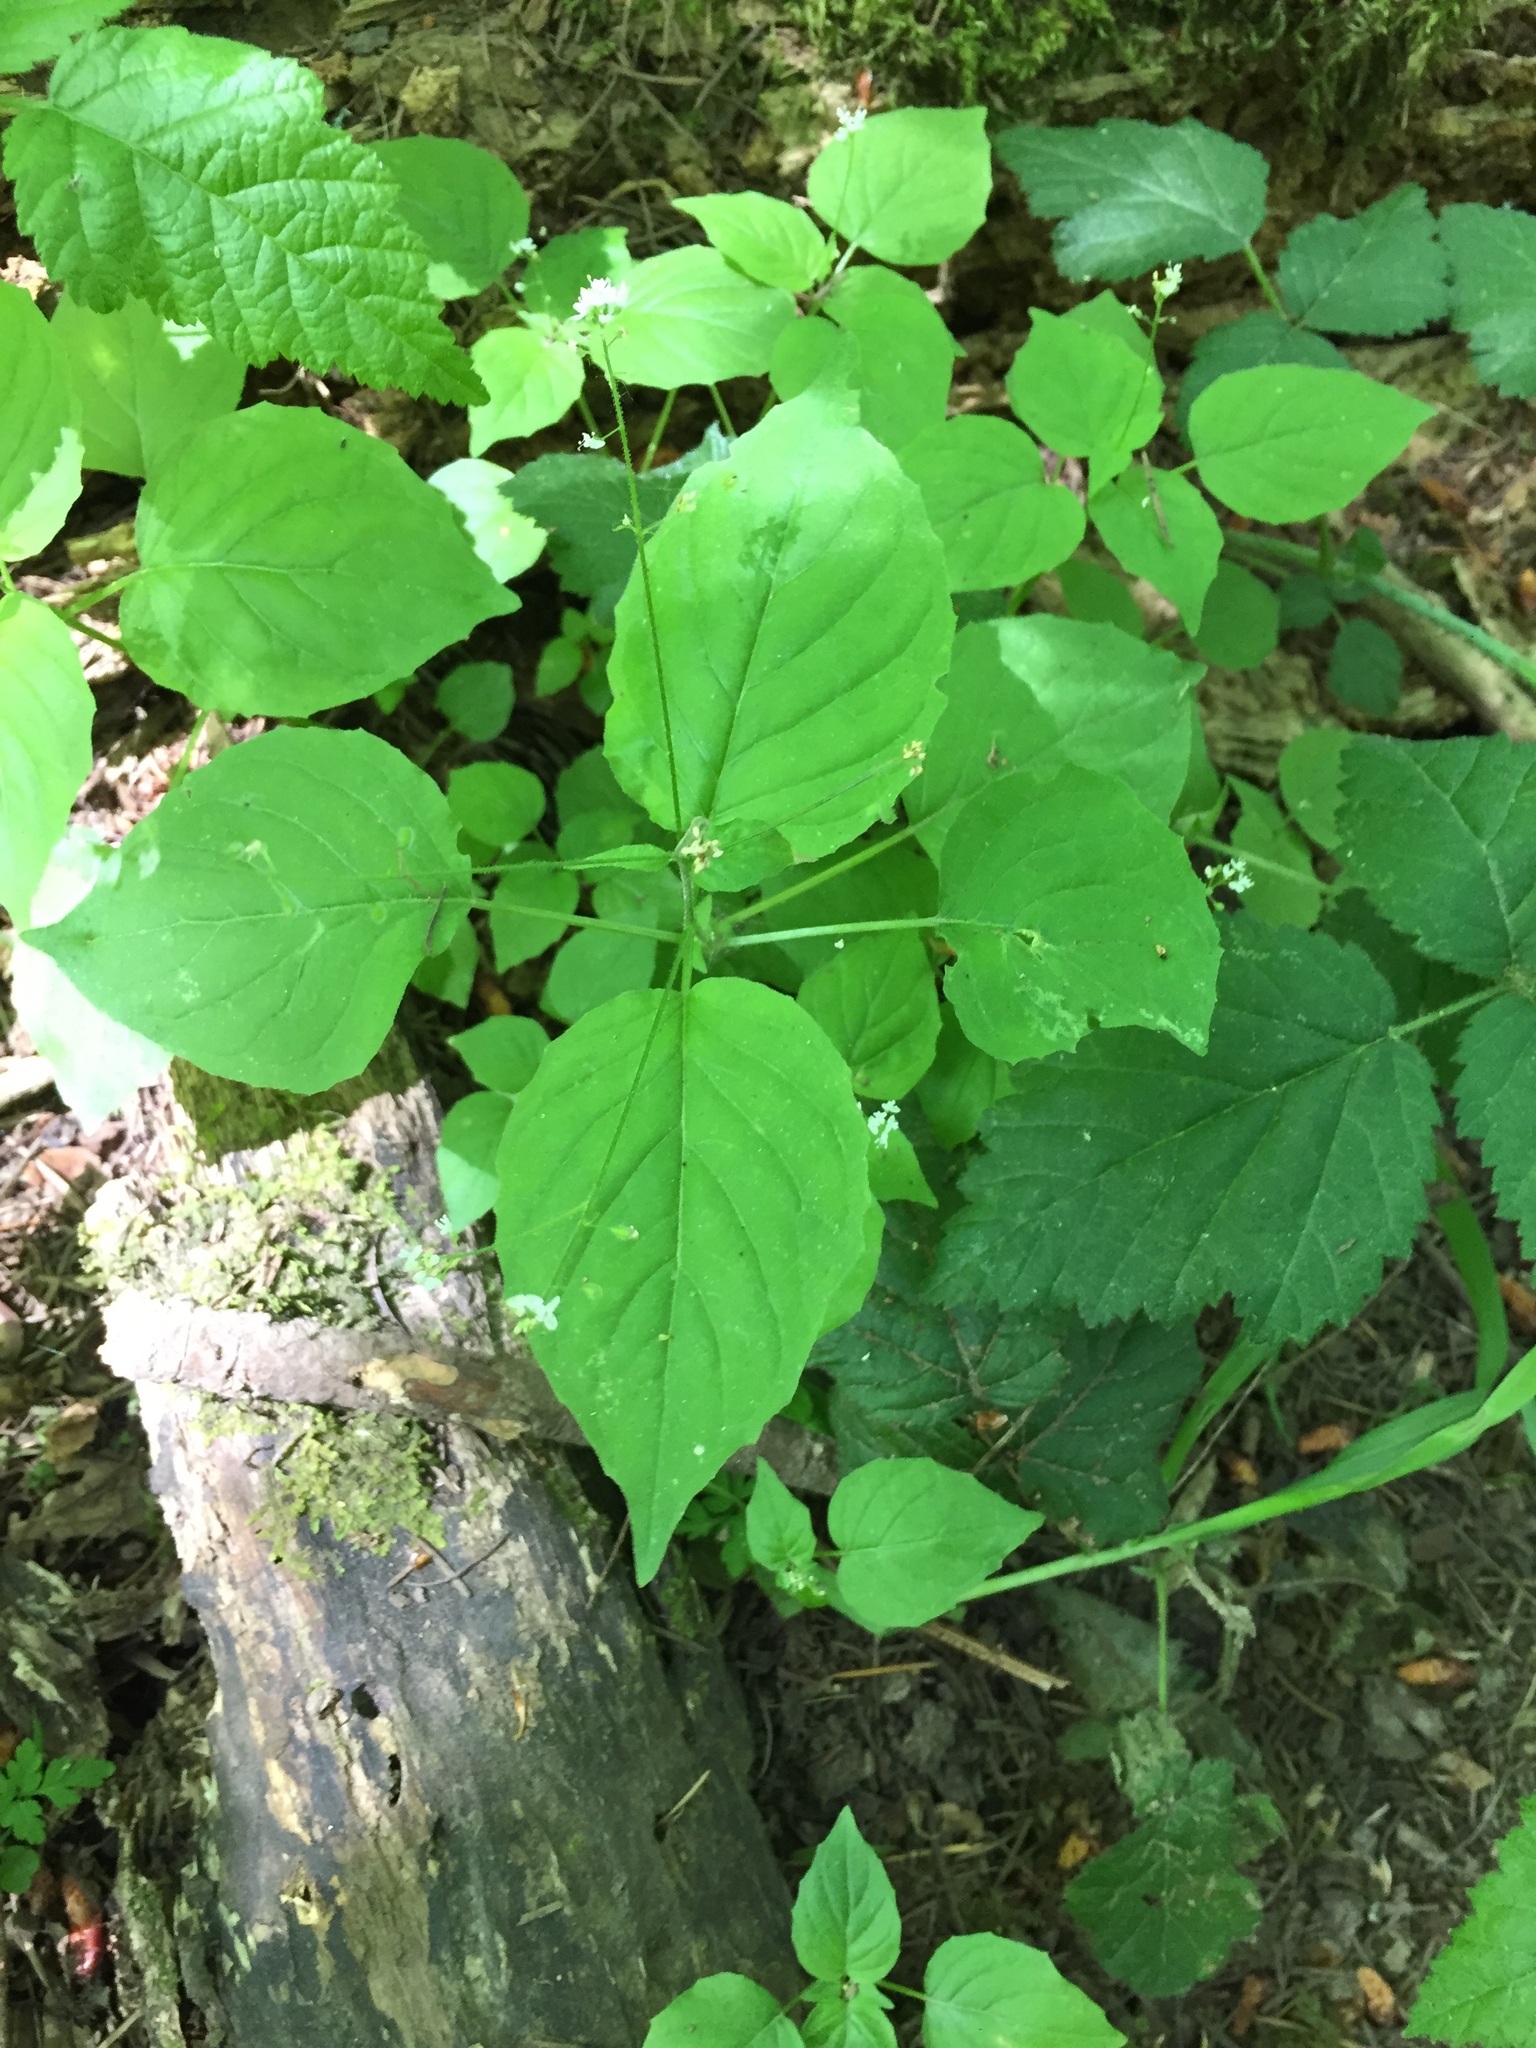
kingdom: Plantae
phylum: Tracheophyta
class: Magnoliopsida
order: Myrtales
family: Onagraceae
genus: Circaea
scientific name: Circaea alpina
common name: Alpine enchanter's-nightshade
